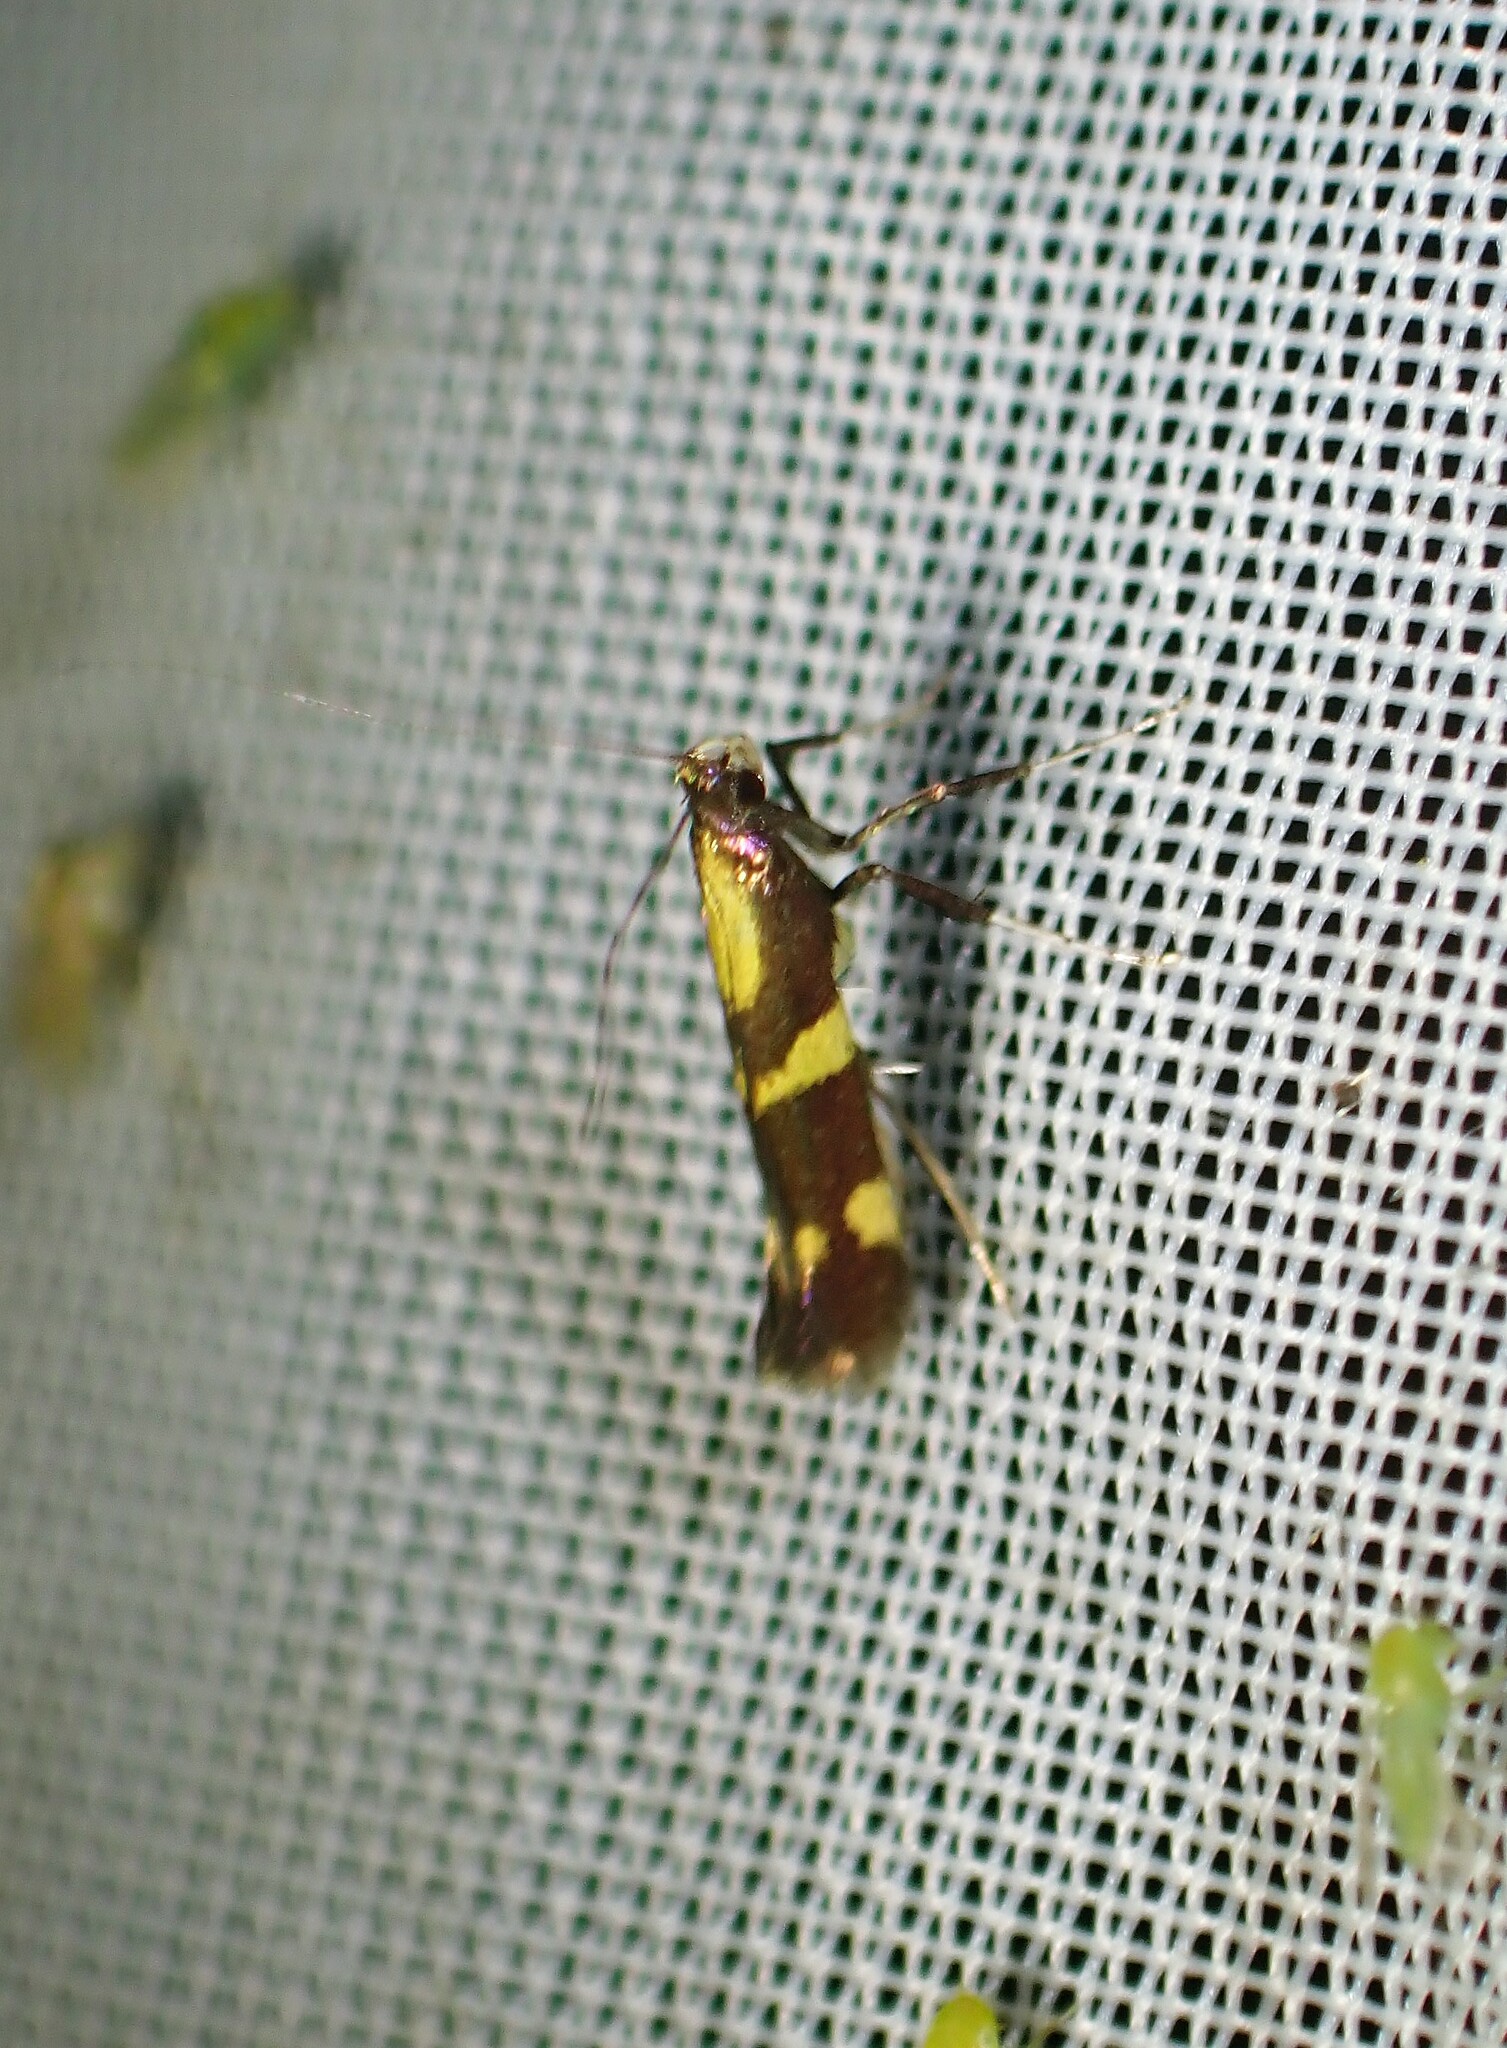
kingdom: Animalia
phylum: Arthropoda
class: Insecta
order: Lepidoptera
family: Gracillariidae
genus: Caloptilia
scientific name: Caloptilia vacciniella
